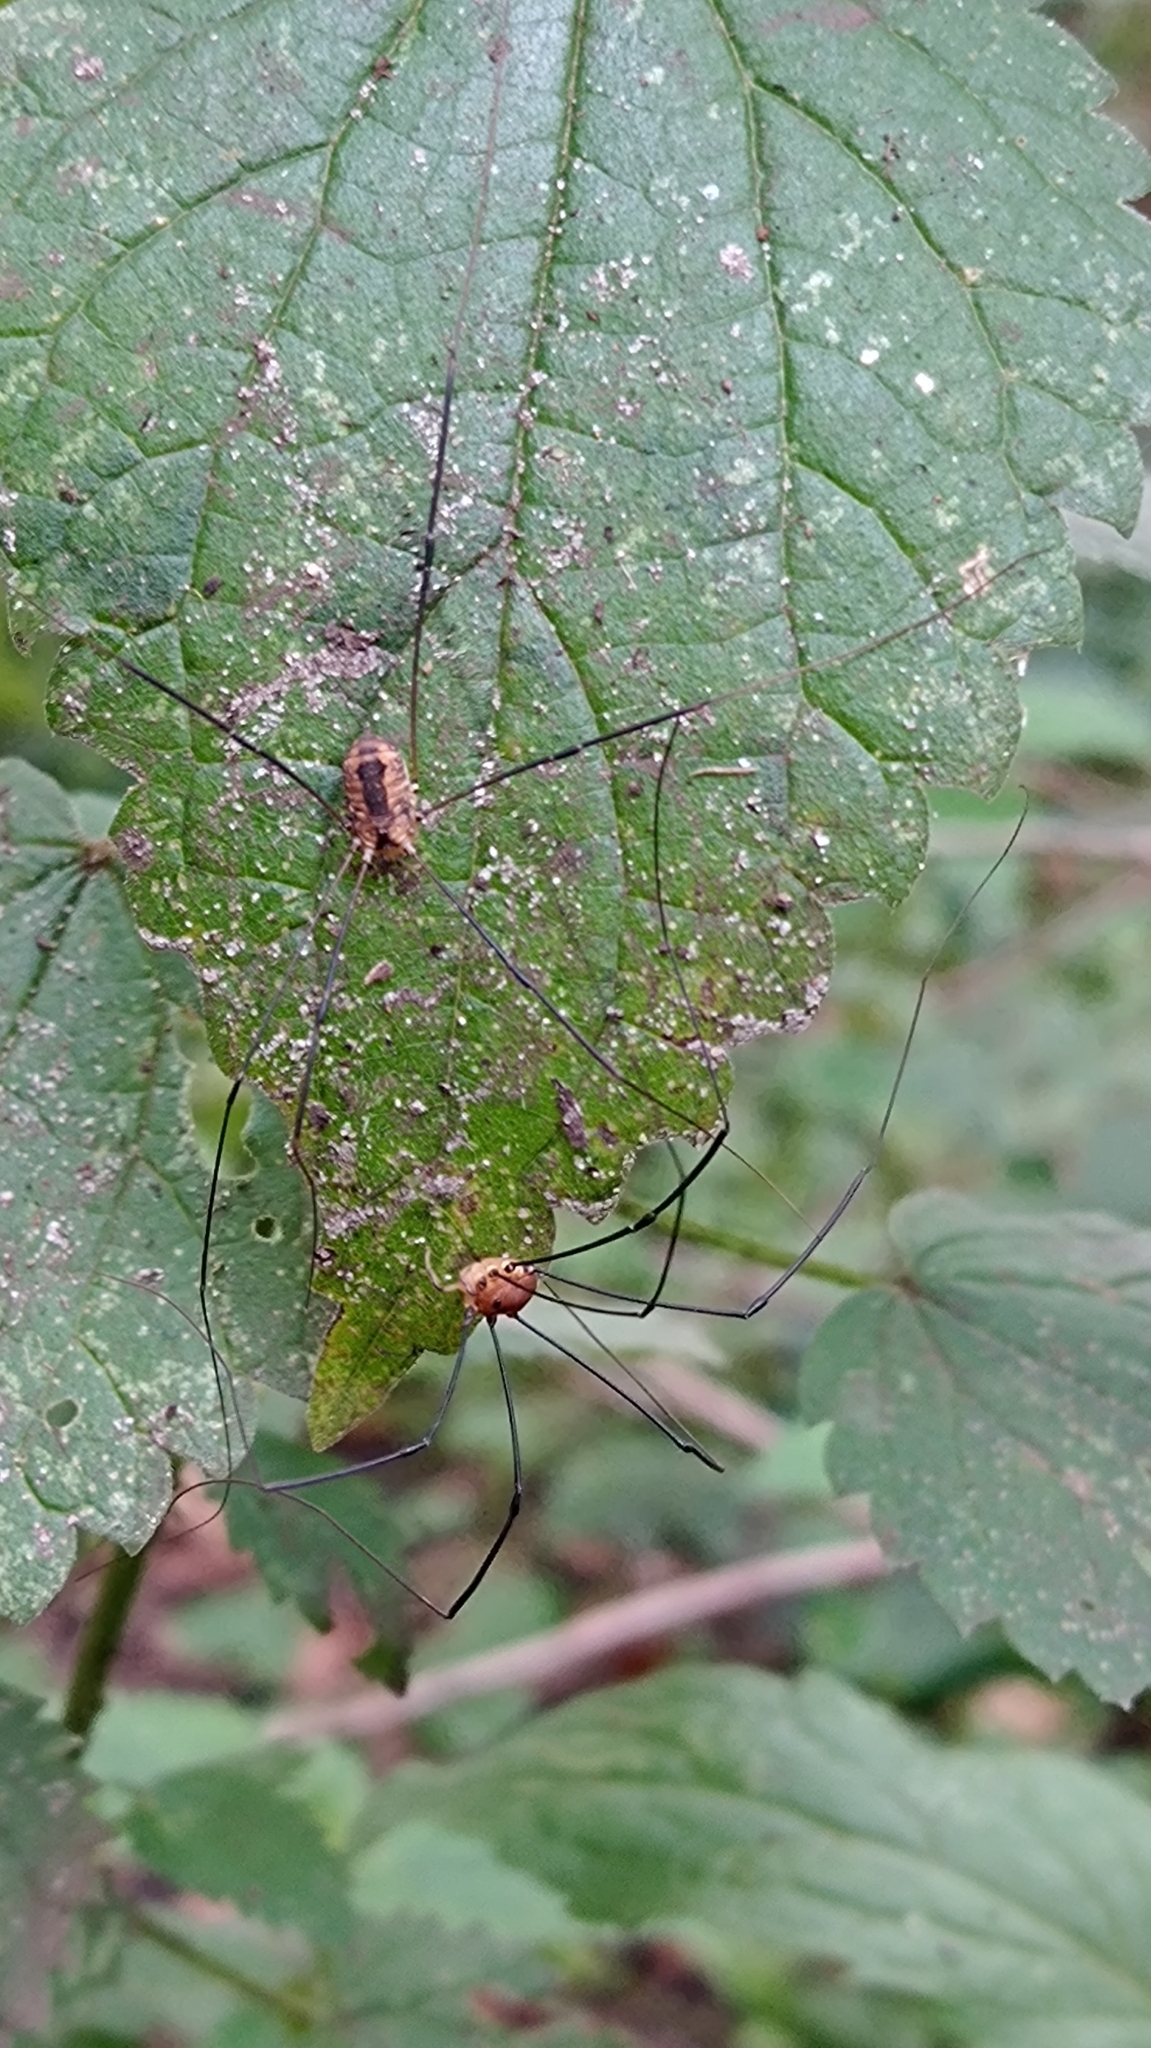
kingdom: Animalia
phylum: Arthropoda
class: Arachnida
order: Opiliones
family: Sclerosomatidae
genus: Leiobunum
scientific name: Leiobunum rotundum
